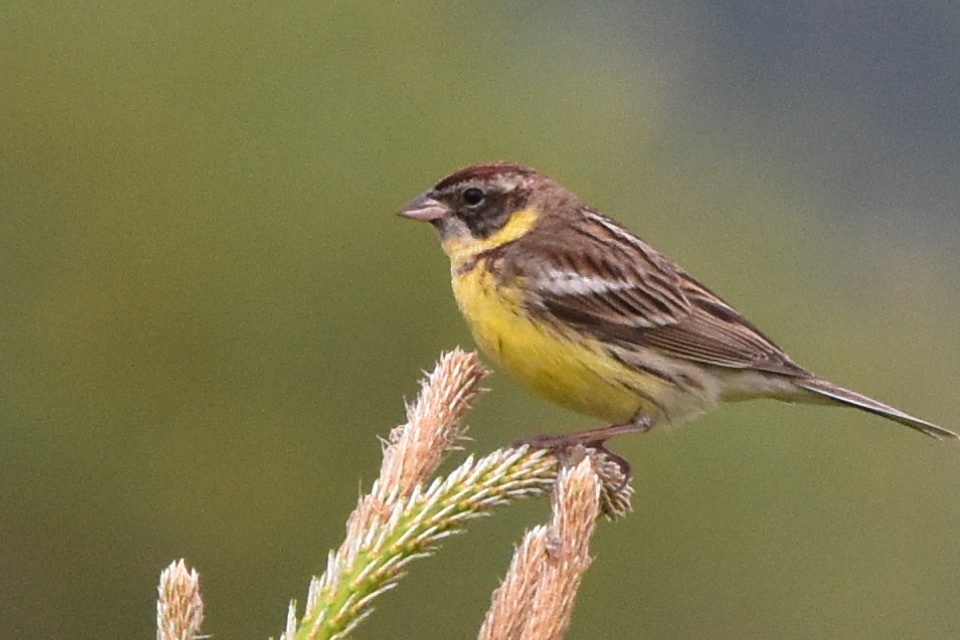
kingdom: Animalia
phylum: Chordata
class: Aves
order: Passeriformes
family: Emberizidae
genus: Emberiza
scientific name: Emberiza aureola
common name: Yellow-breasted bunting
